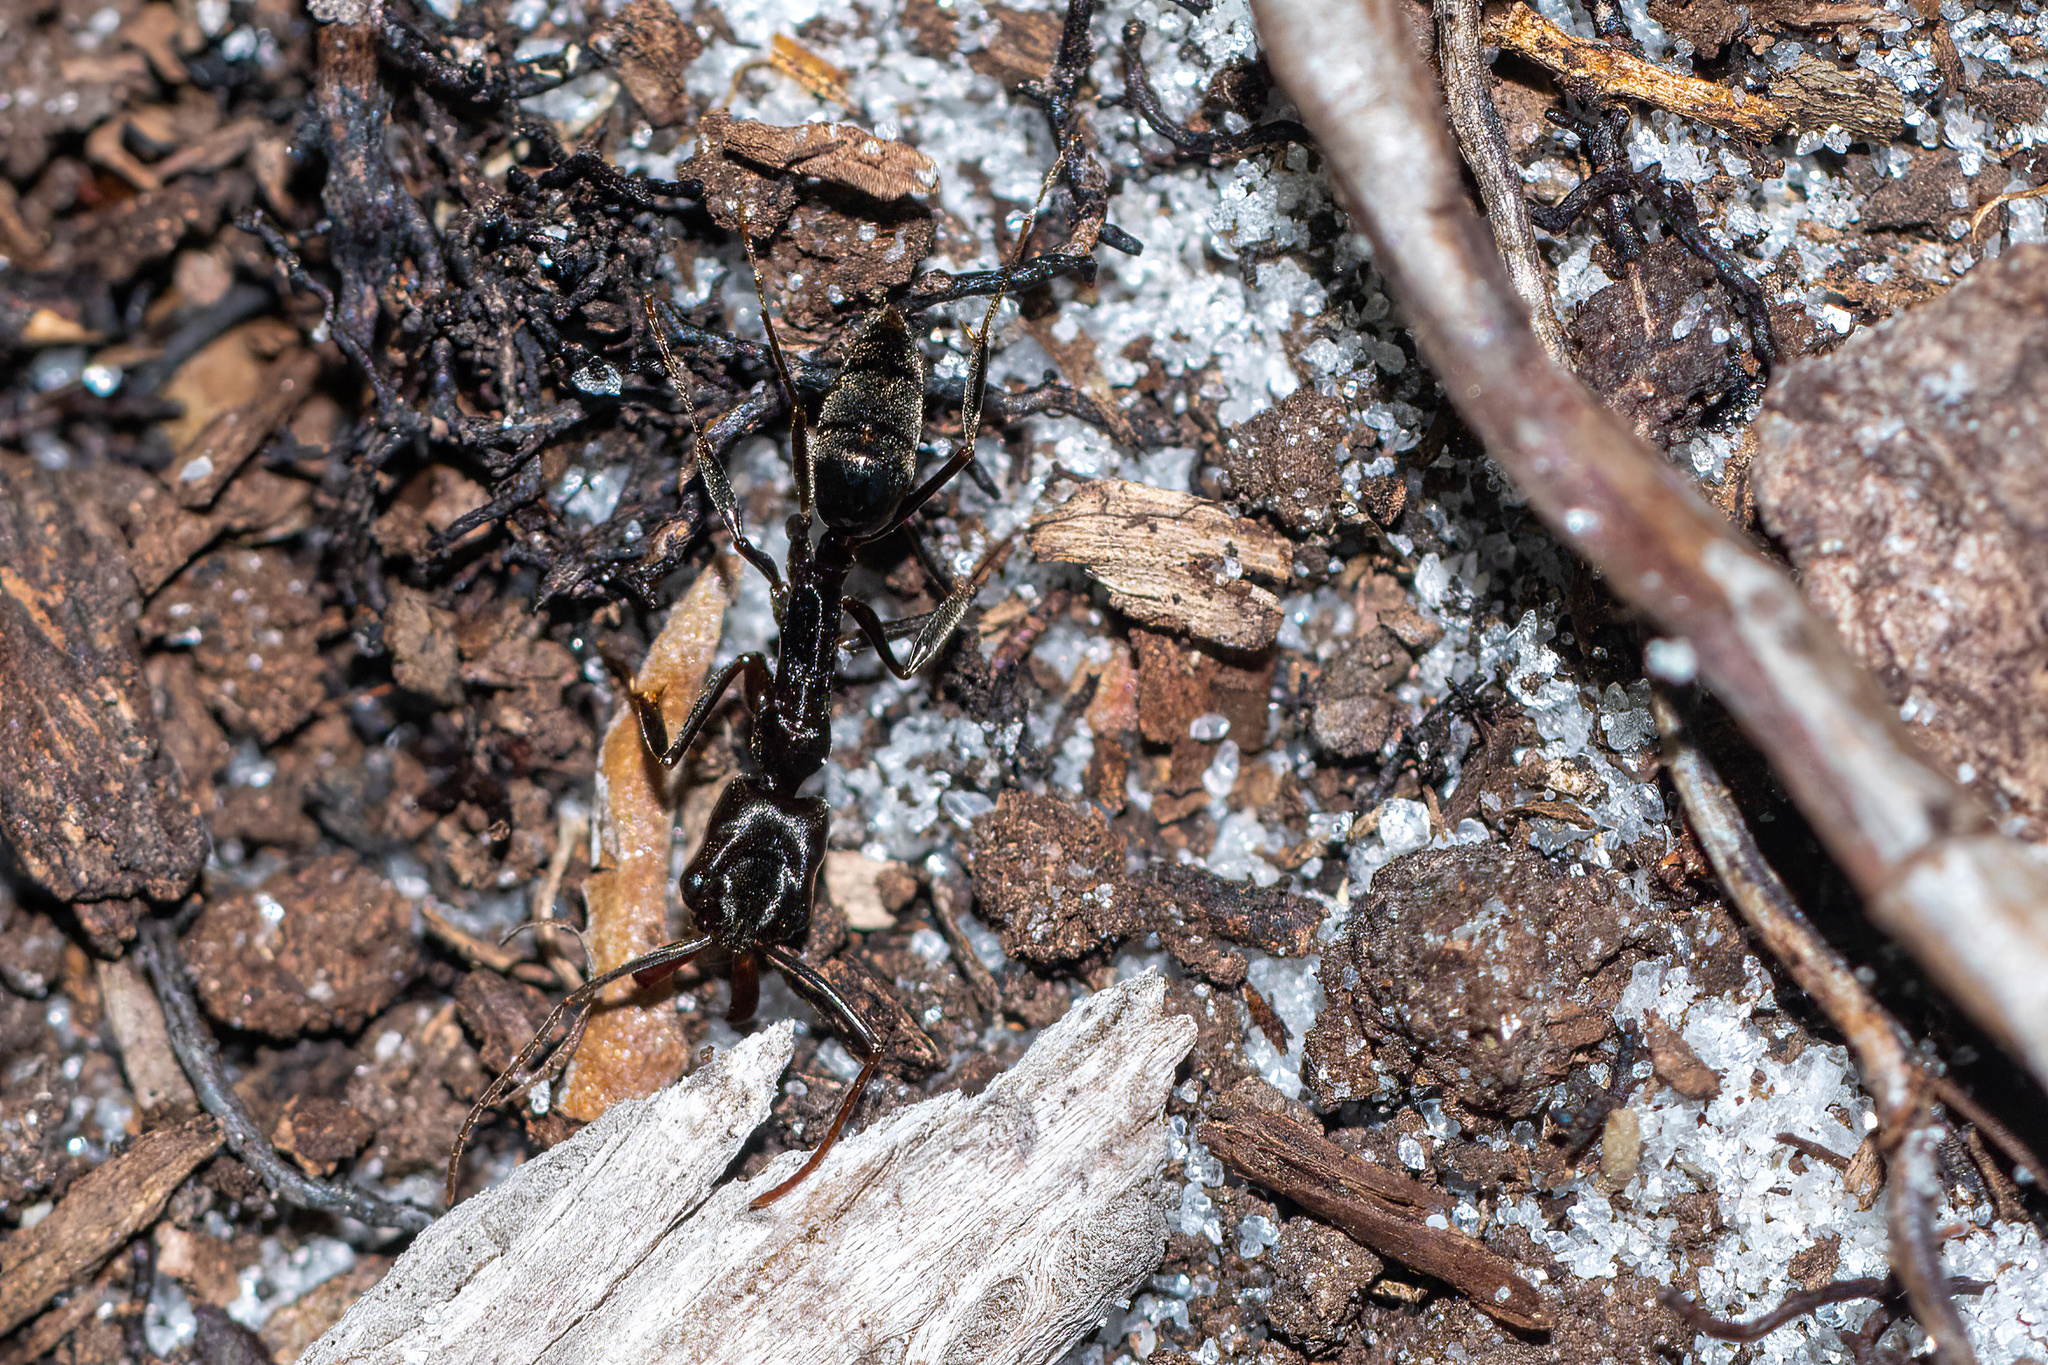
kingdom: Animalia
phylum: Arthropoda
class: Insecta
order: Hymenoptera
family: Formicidae
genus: Odontomachus
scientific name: Odontomachus brunneus
